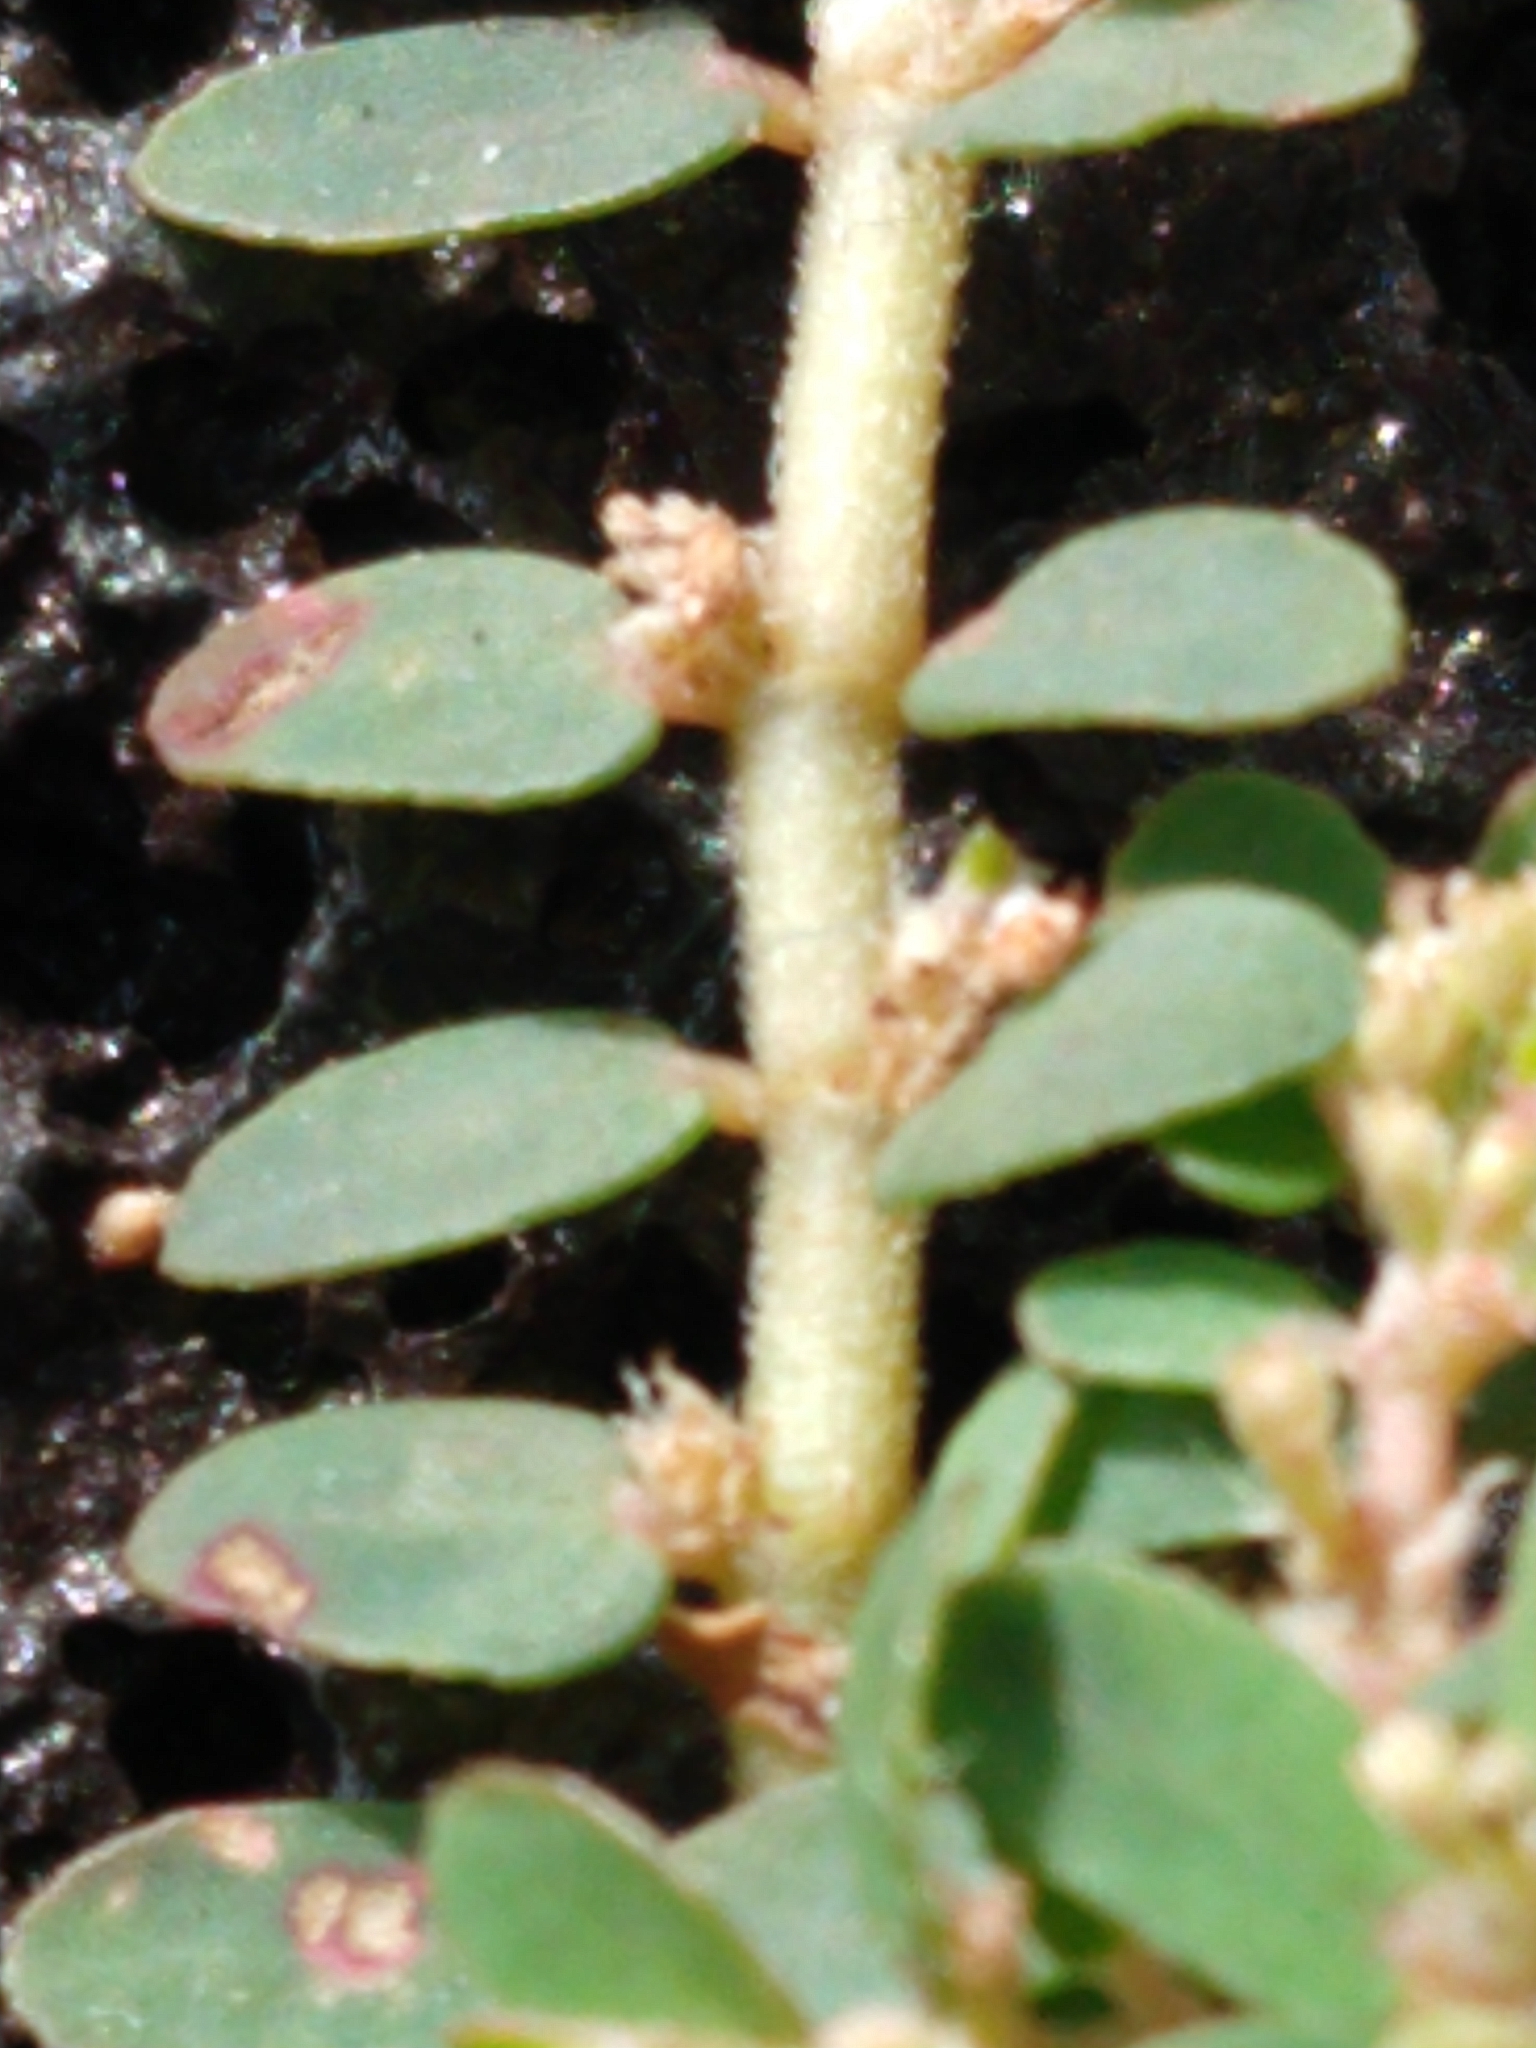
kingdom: Plantae
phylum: Tracheophyta
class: Magnoliopsida
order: Malpighiales
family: Euphorbiaceae
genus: Euphorbia
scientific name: Euphorbia thymifolia
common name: Gulf sandmat
